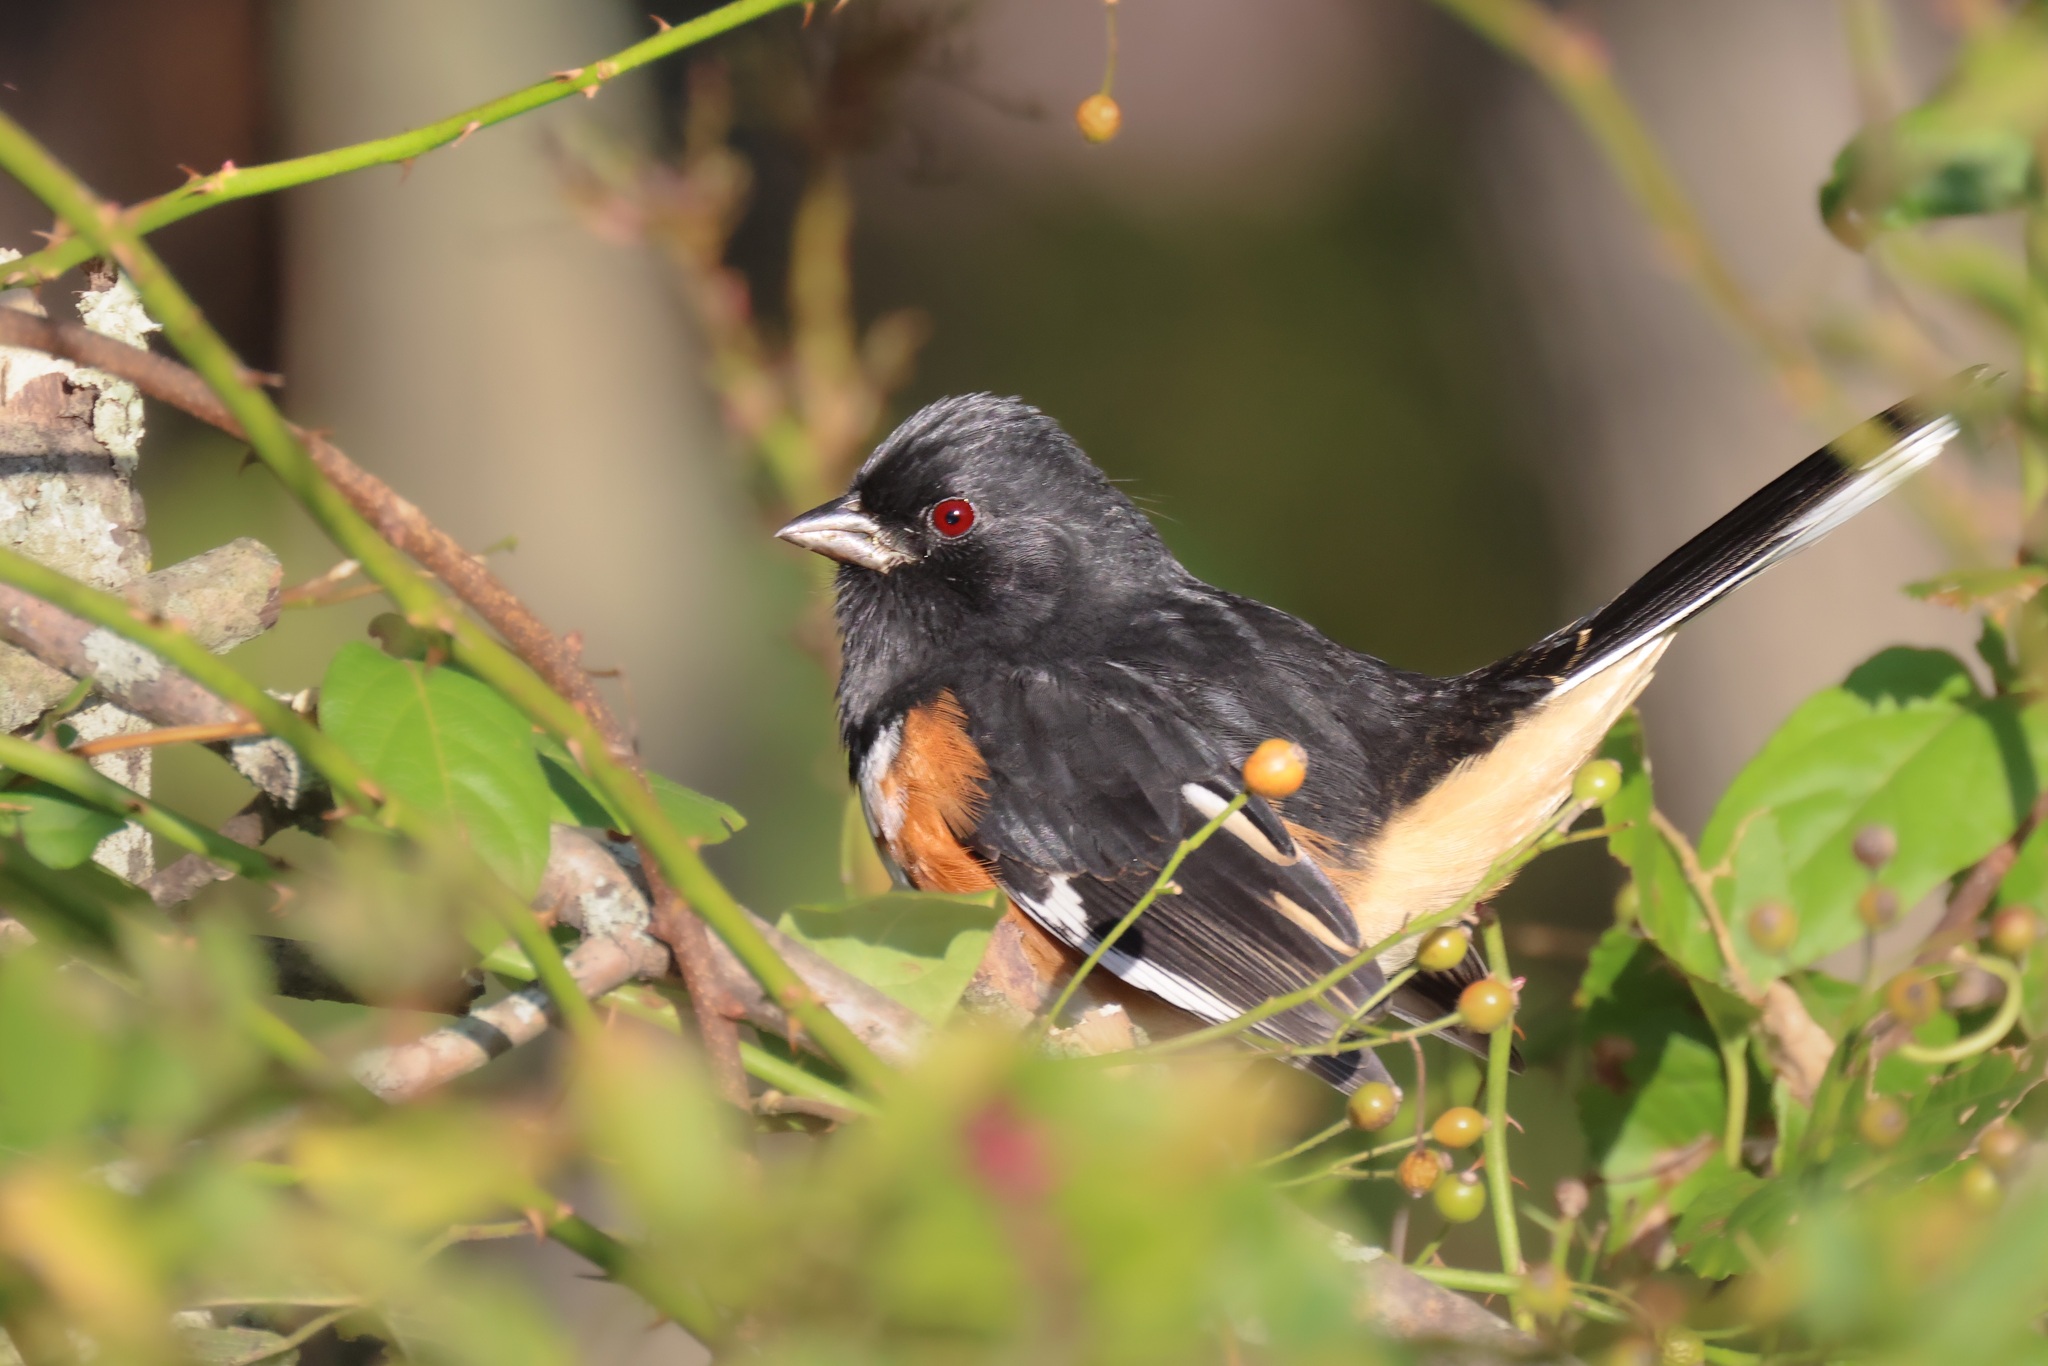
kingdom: Animalia
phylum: Chordata
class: Aves
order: Passeriformes
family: Passerellidae
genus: Pipilo
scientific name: Pipilo erythrophthalmus
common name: Eastern towhee
